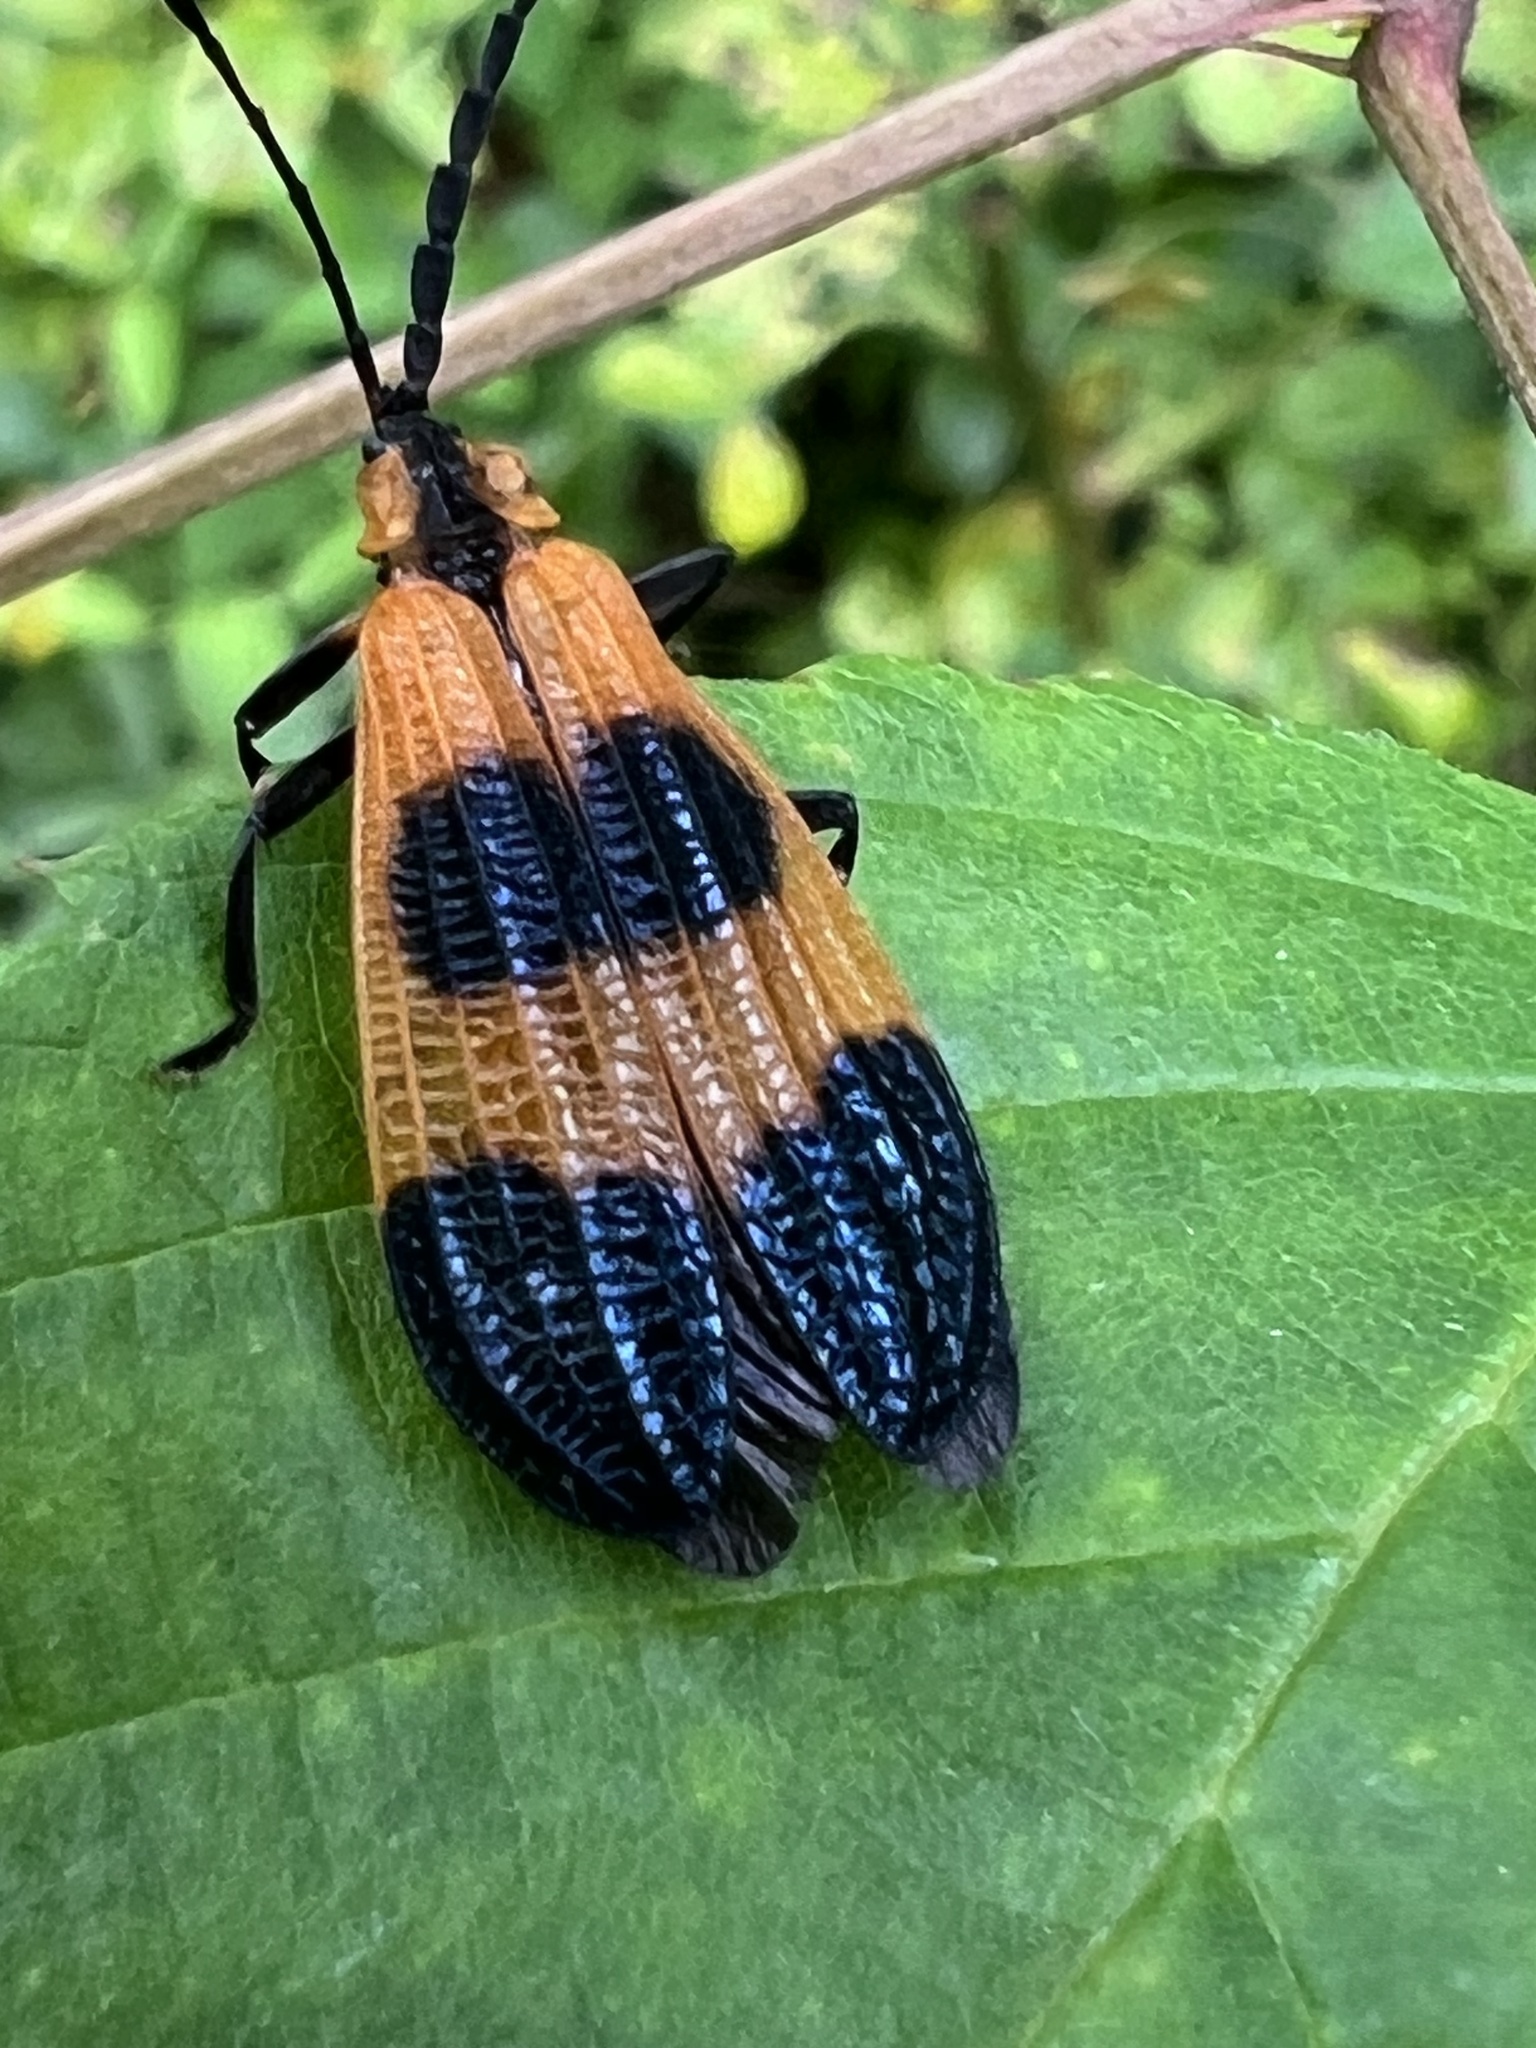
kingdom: Animalia
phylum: Arthropoda
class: Insecta
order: Coleoptera
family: Lycidae
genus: Calopteron
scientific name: Calopteron terminale
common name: End band net-winged beetle
